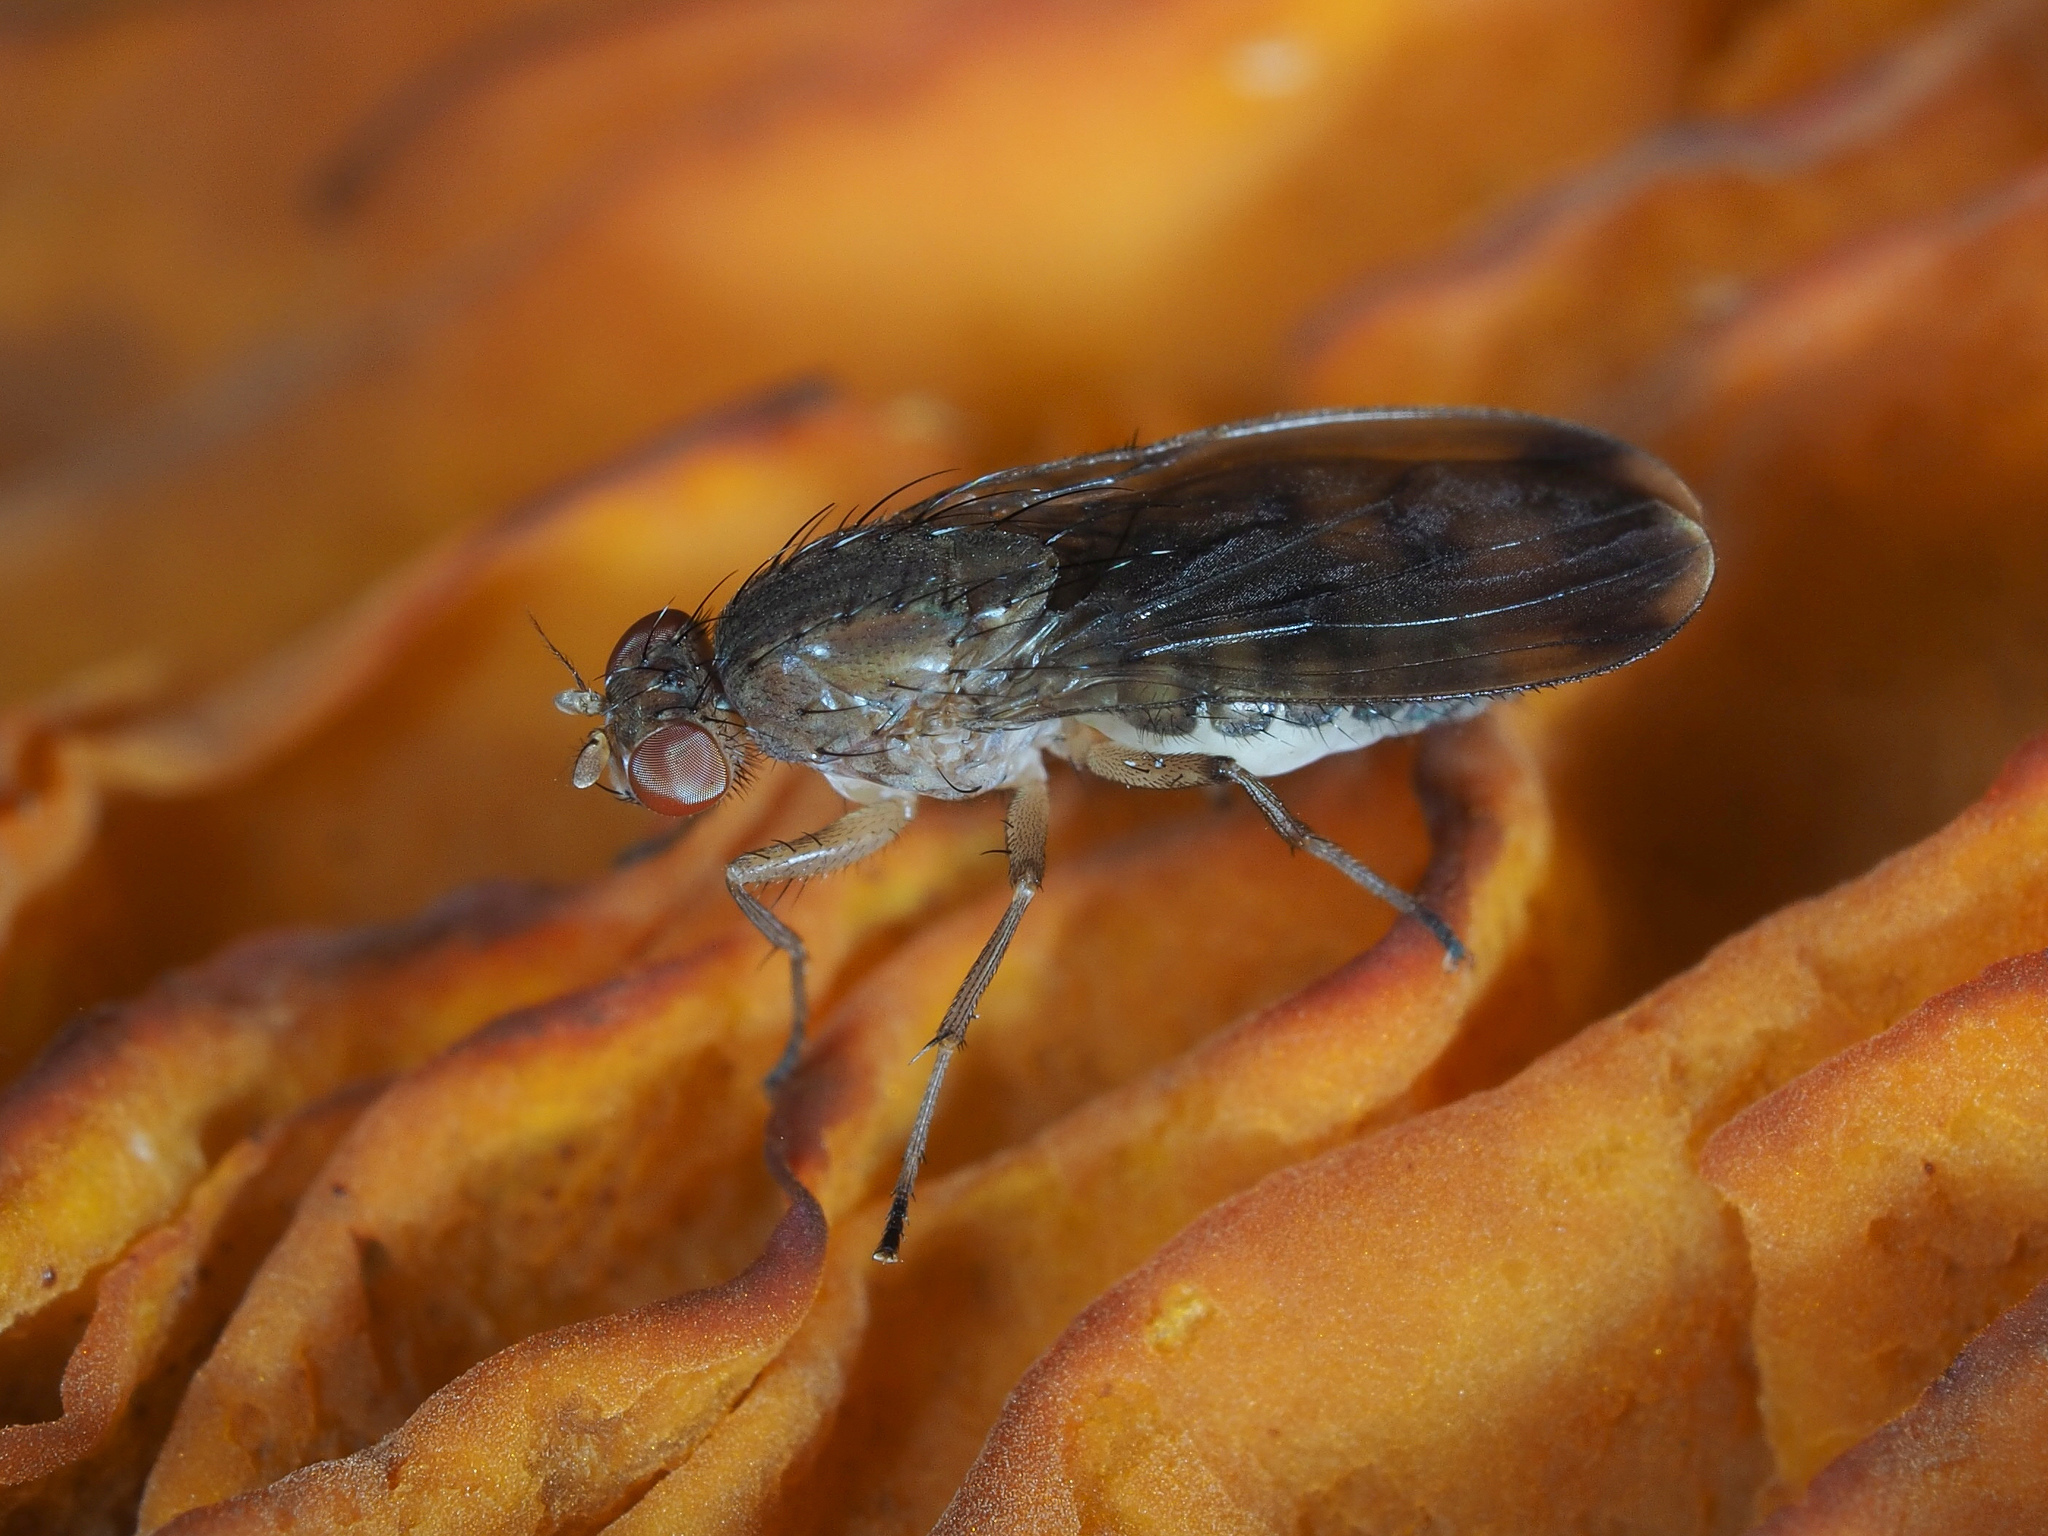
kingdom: Animalia
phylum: Arthropoda
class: Insecta
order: Diptera
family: Heleomyzidae
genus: Suillia
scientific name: Suillia variegata
